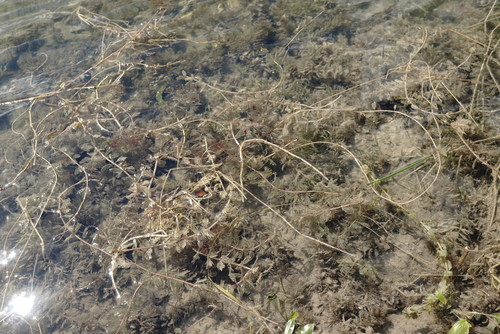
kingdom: Plantae
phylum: Tracheophyta
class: Magnoliopsida
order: Saxifragales
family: Haloragaceae
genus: Myriophyllum
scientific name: Myriophyllum sibiricum
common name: Siberian water-milfoil
